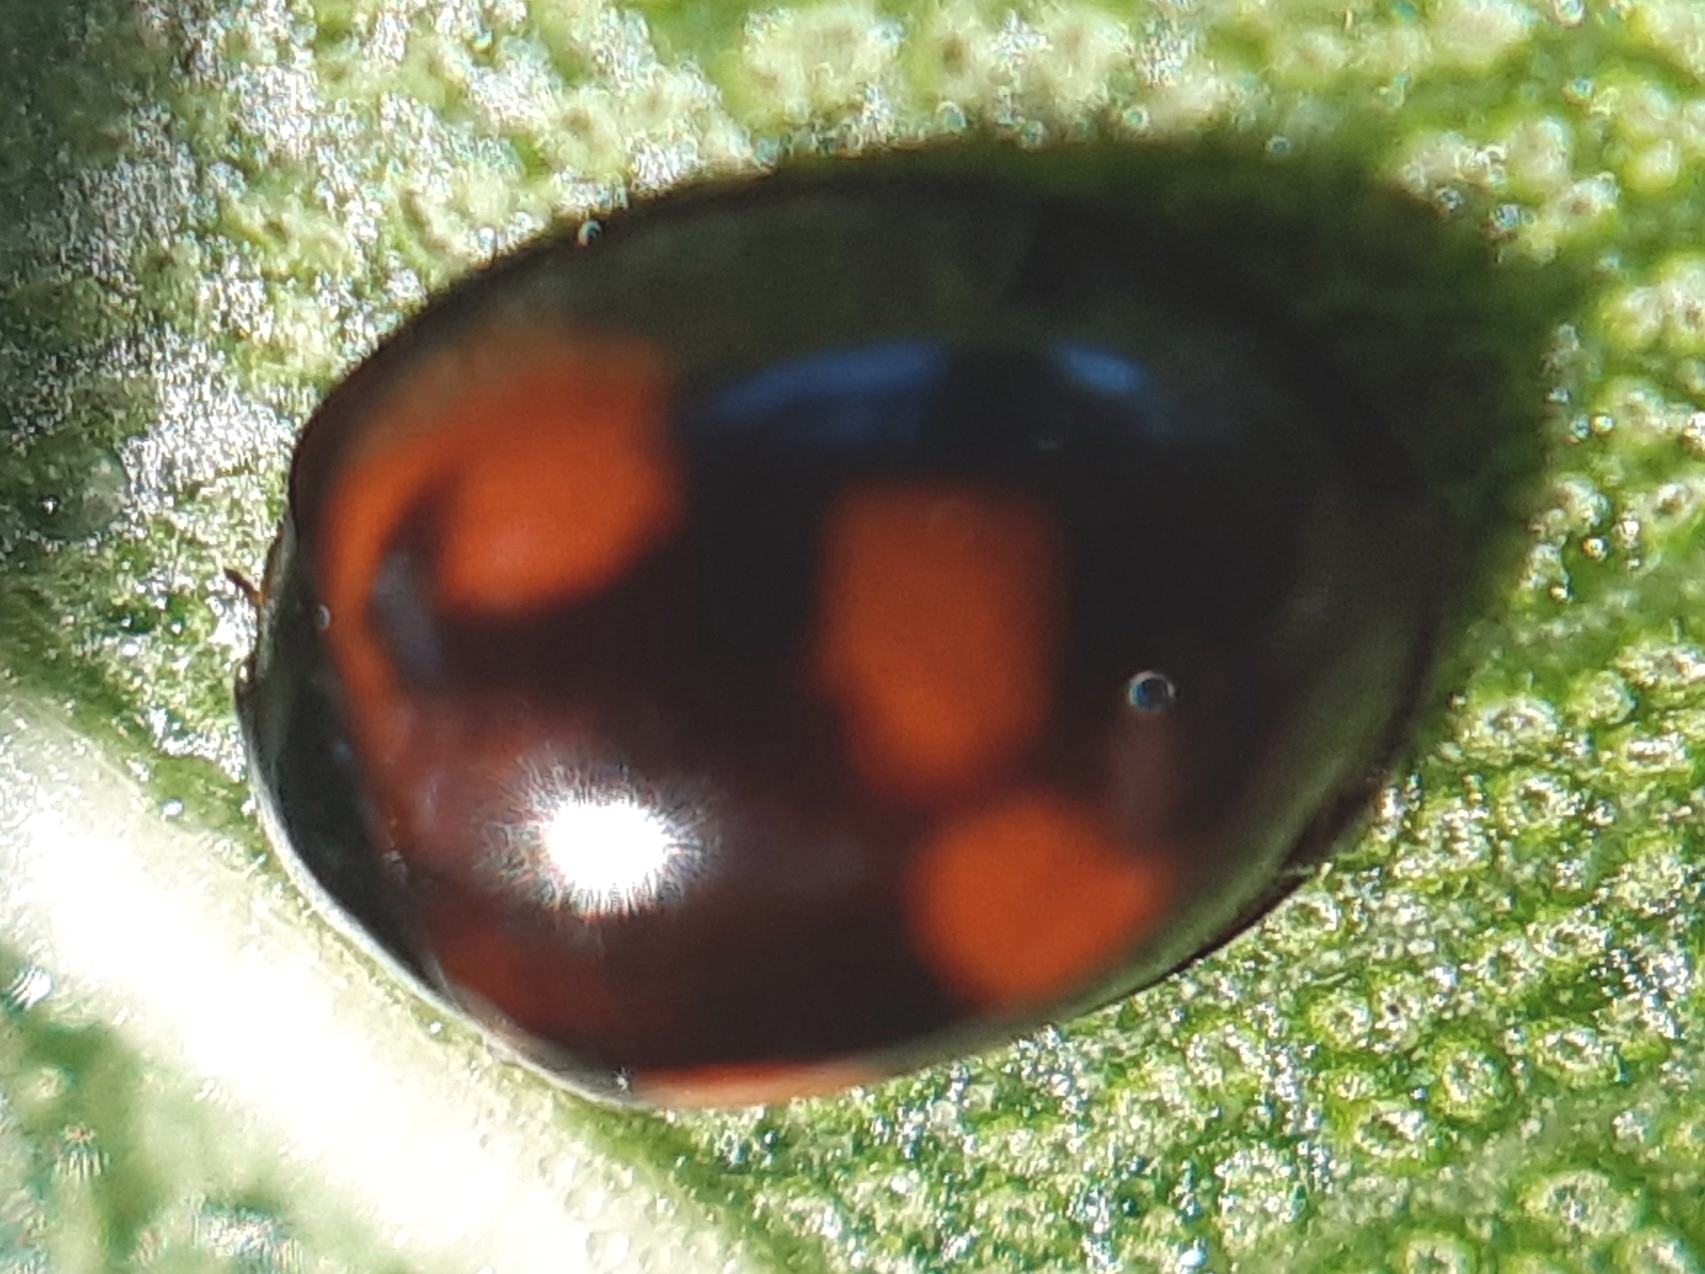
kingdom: Animalia
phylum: Arthropoda
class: Insecta
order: Coleoptera
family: Coccinellidae
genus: Brumus
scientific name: Brumus quadripustulatus
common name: Ladybird beetle
